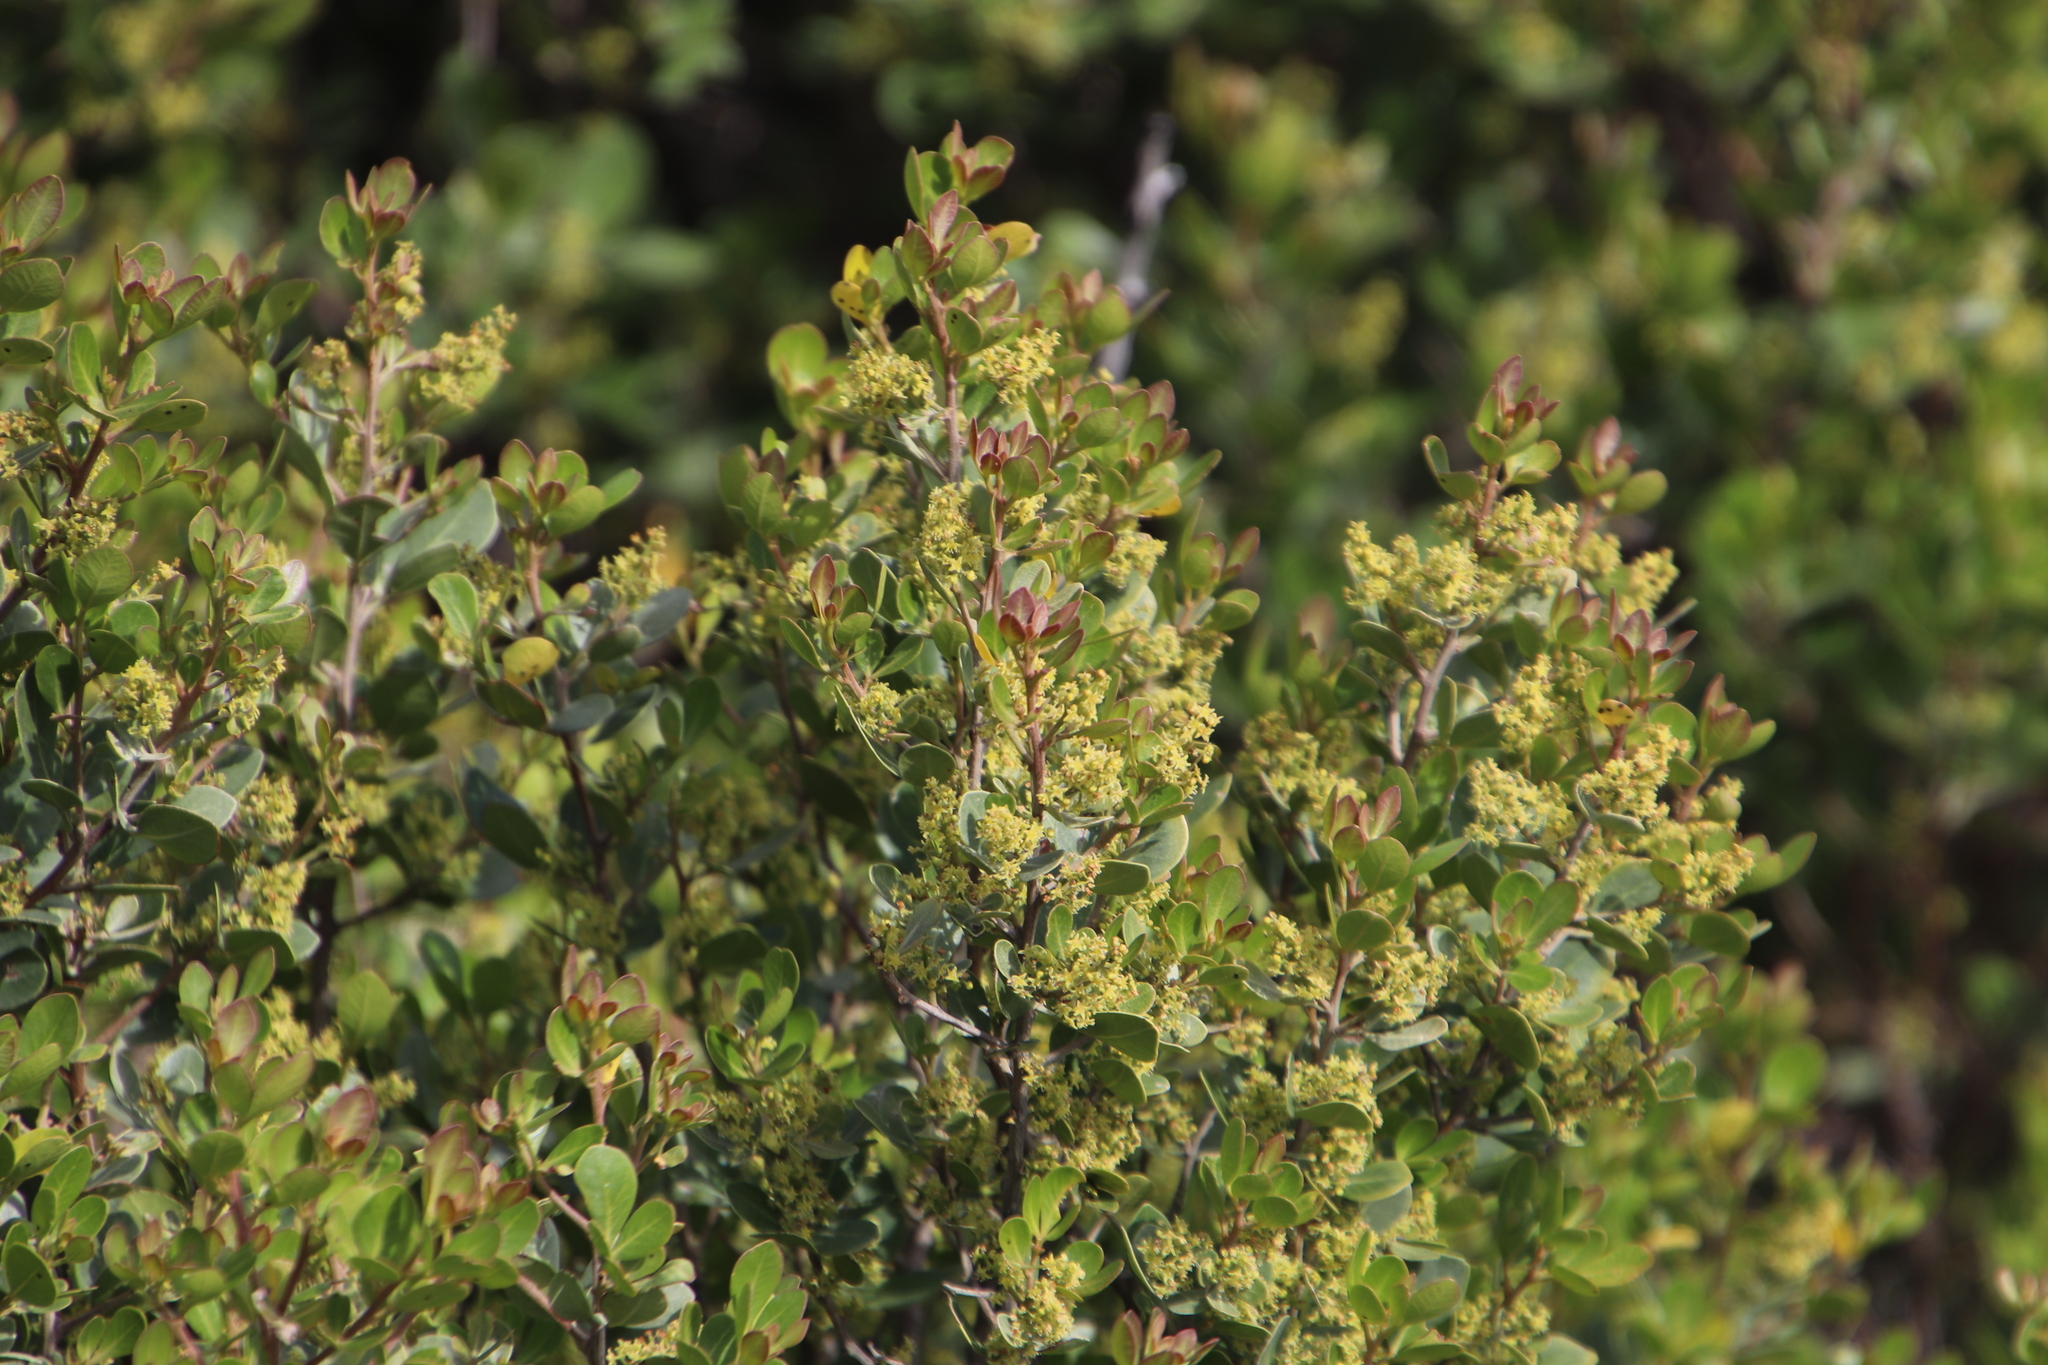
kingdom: Plantae
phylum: Tracheophyta
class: Magnoliopsida
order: Sapindales
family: Anacardiaceae
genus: Searsia
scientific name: Searsia lucida
